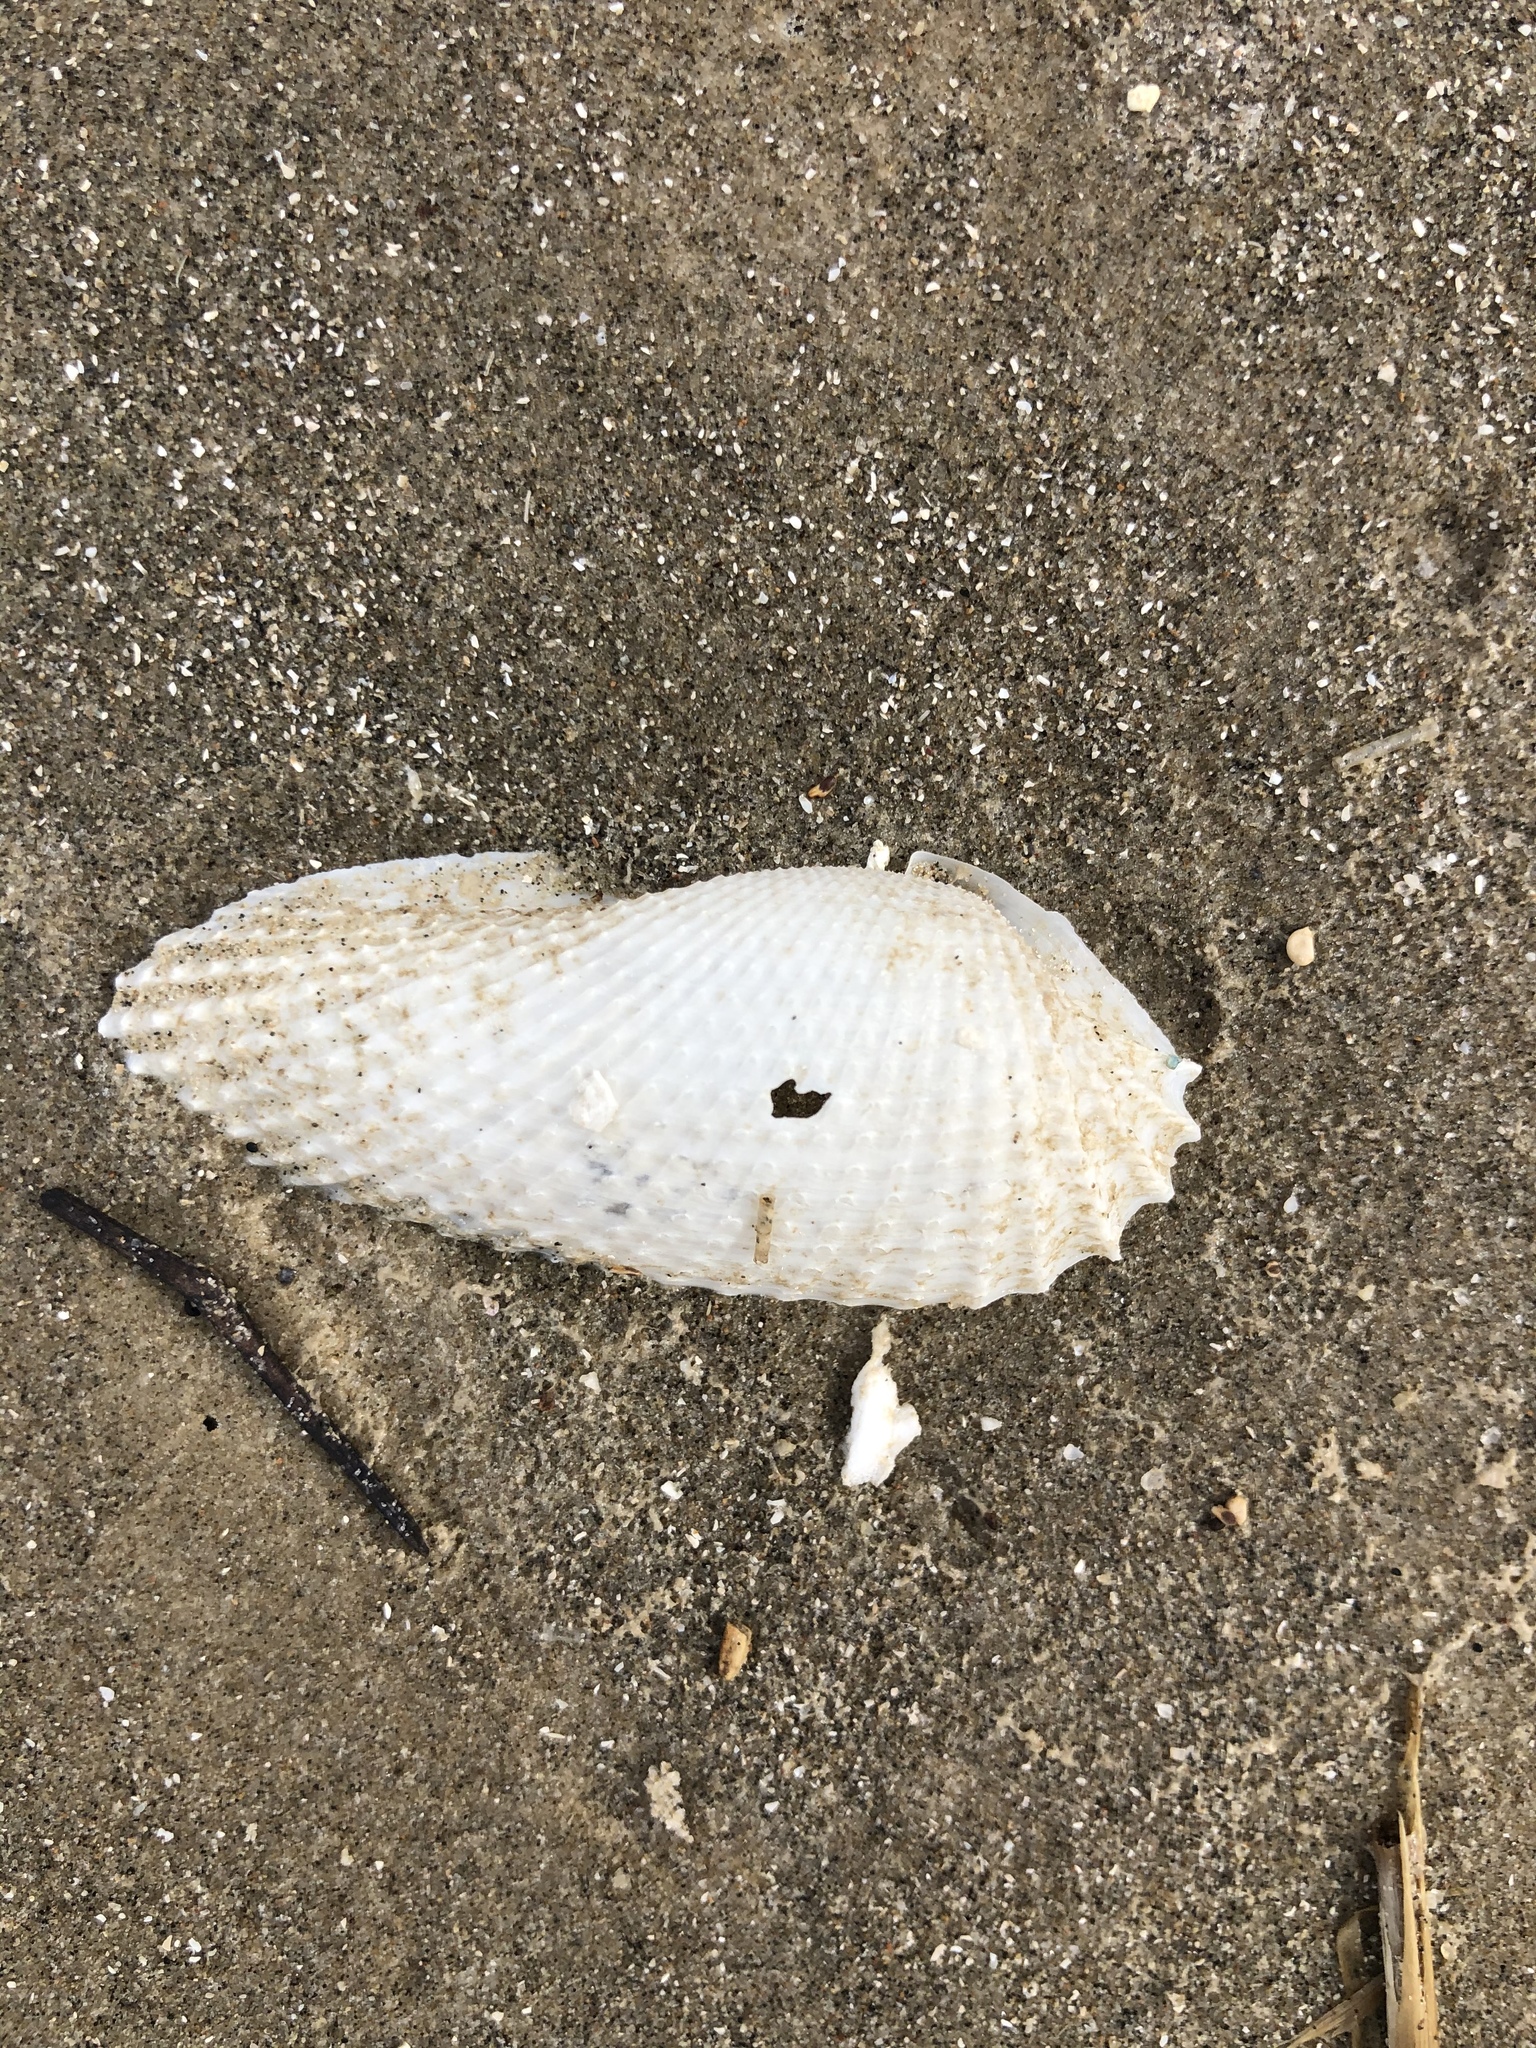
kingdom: Animalia
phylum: Mollusca
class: Bivalvia
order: Myida
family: Pholadidae
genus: Cyrtopleura
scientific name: Cyrtopleura costata
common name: Angel wing
